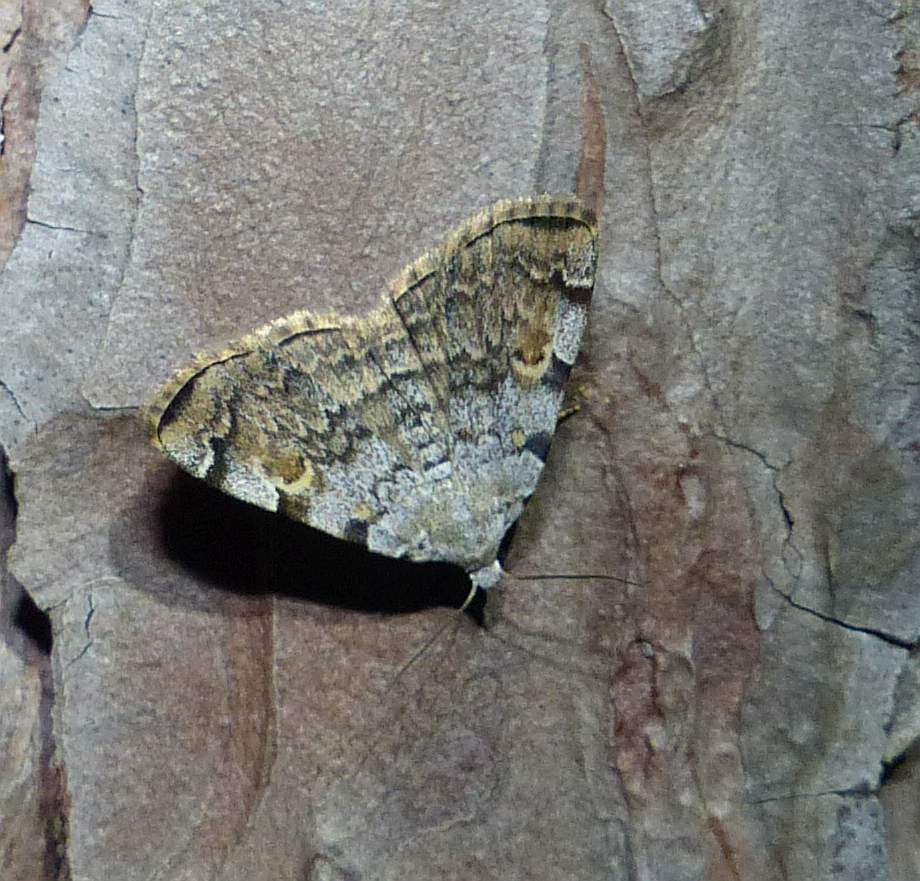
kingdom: Animalia
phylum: Arthropoda
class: Insecta
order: Lepidoptera
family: Erebidae
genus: Idia
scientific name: Idia americalis
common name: American idia moth
